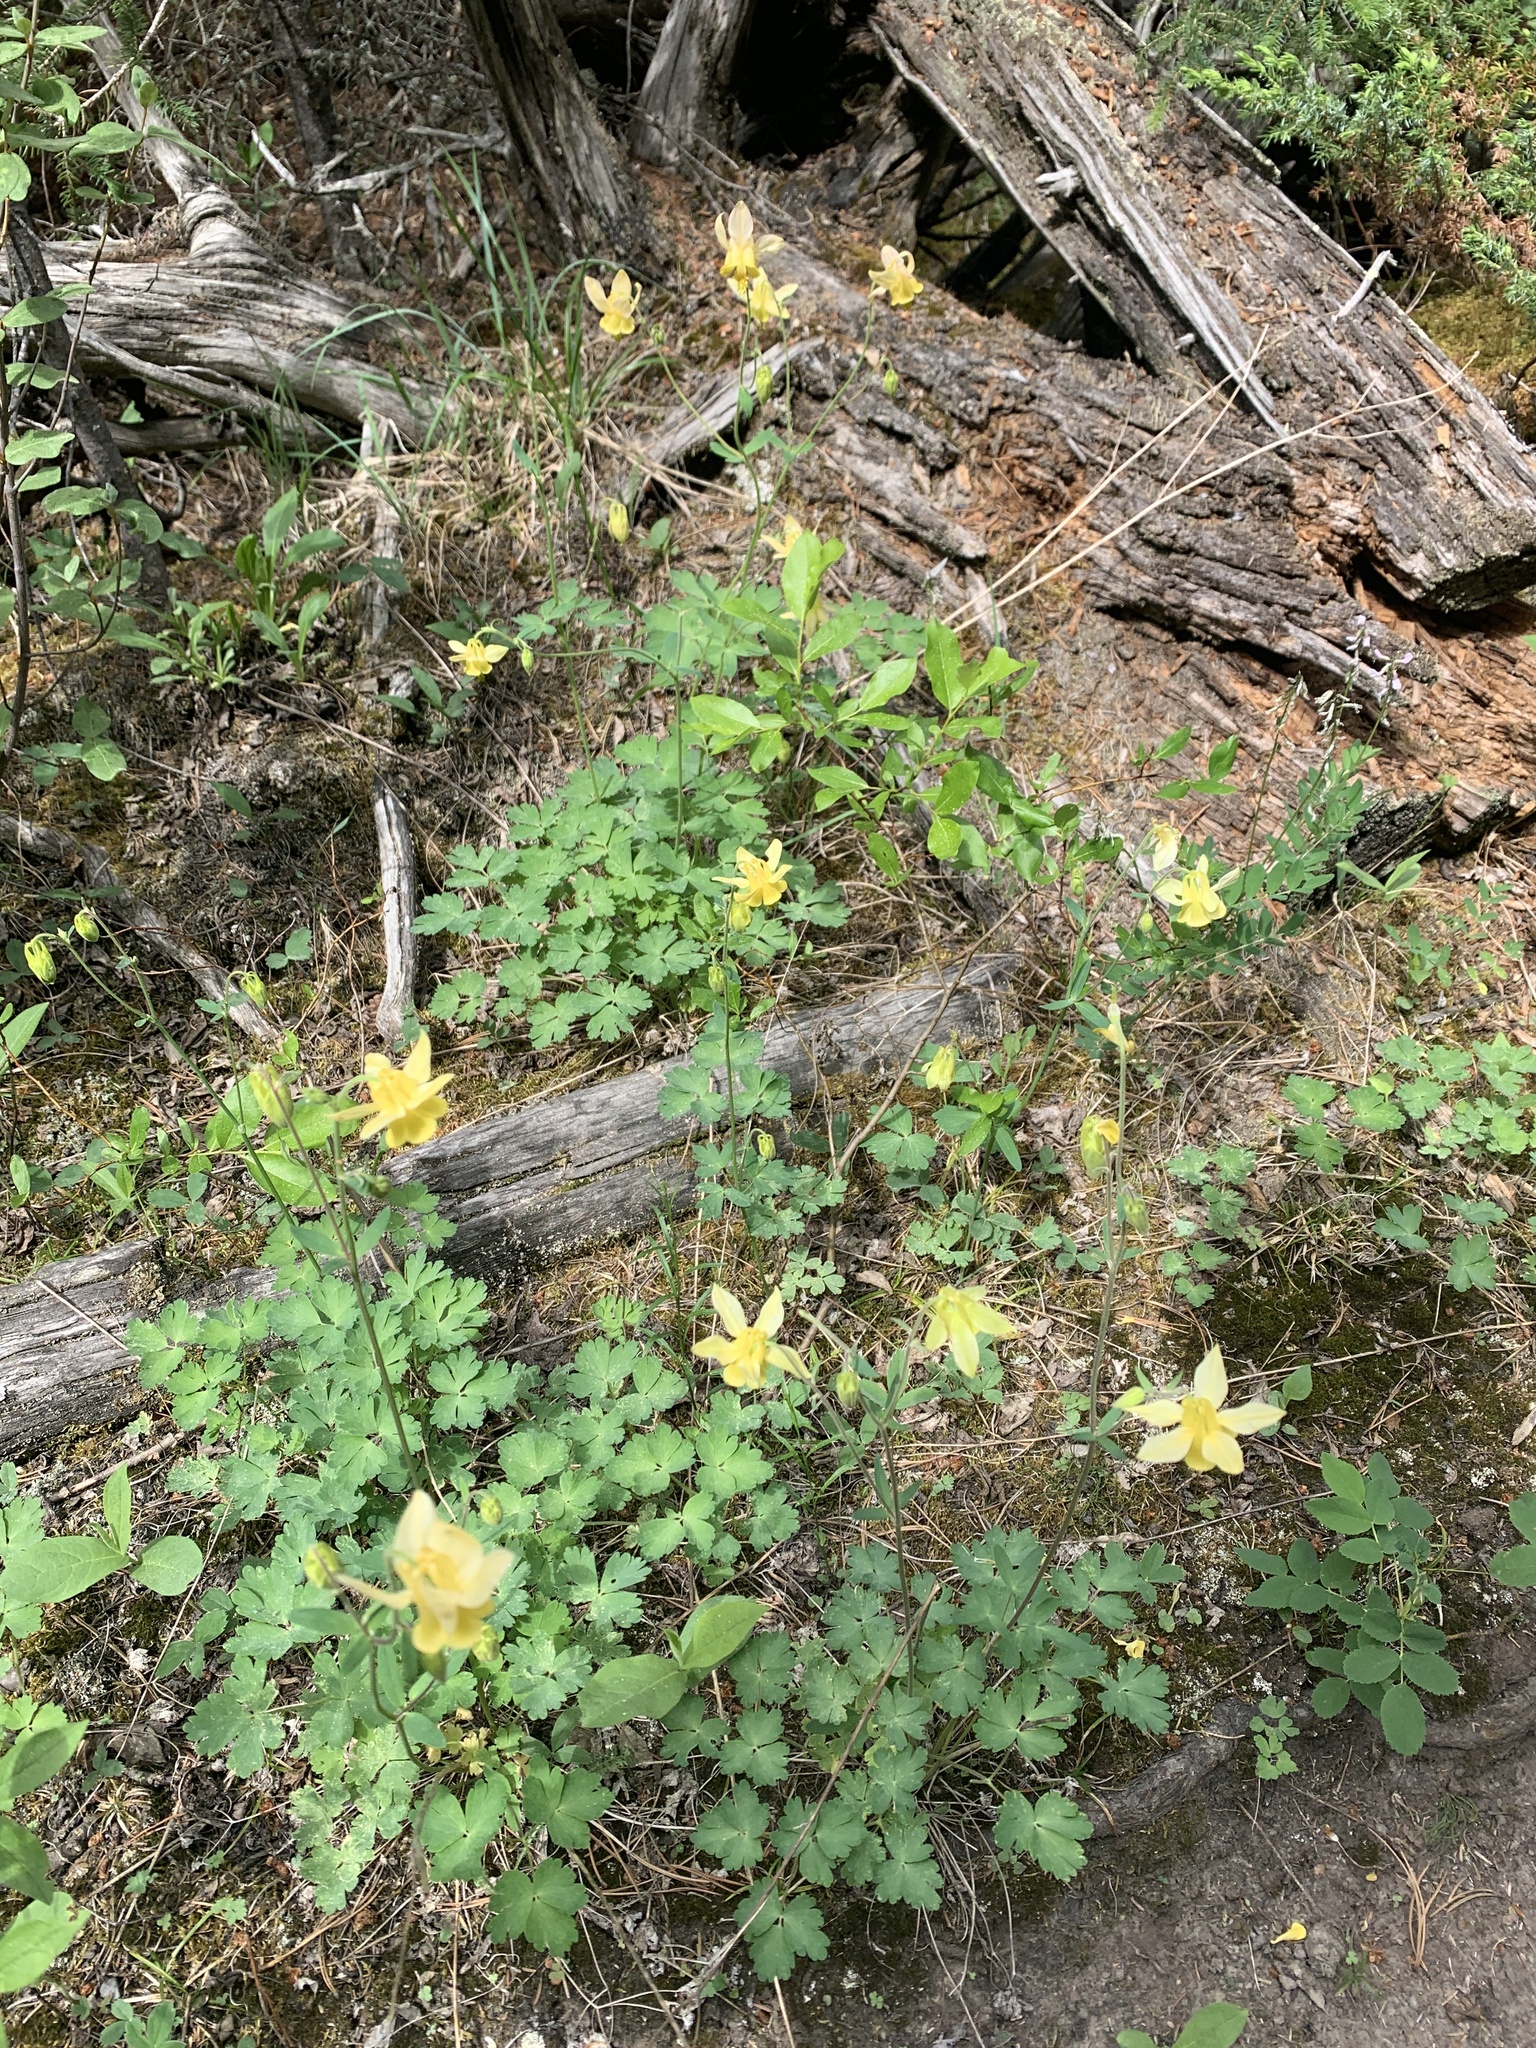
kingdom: Plantae
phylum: Tracheophyta
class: Magnoliopsida
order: Ranunculales
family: Ranunculaceae
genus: Aquilegia
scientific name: Aquilegia flavescens
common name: Yellow columbine
